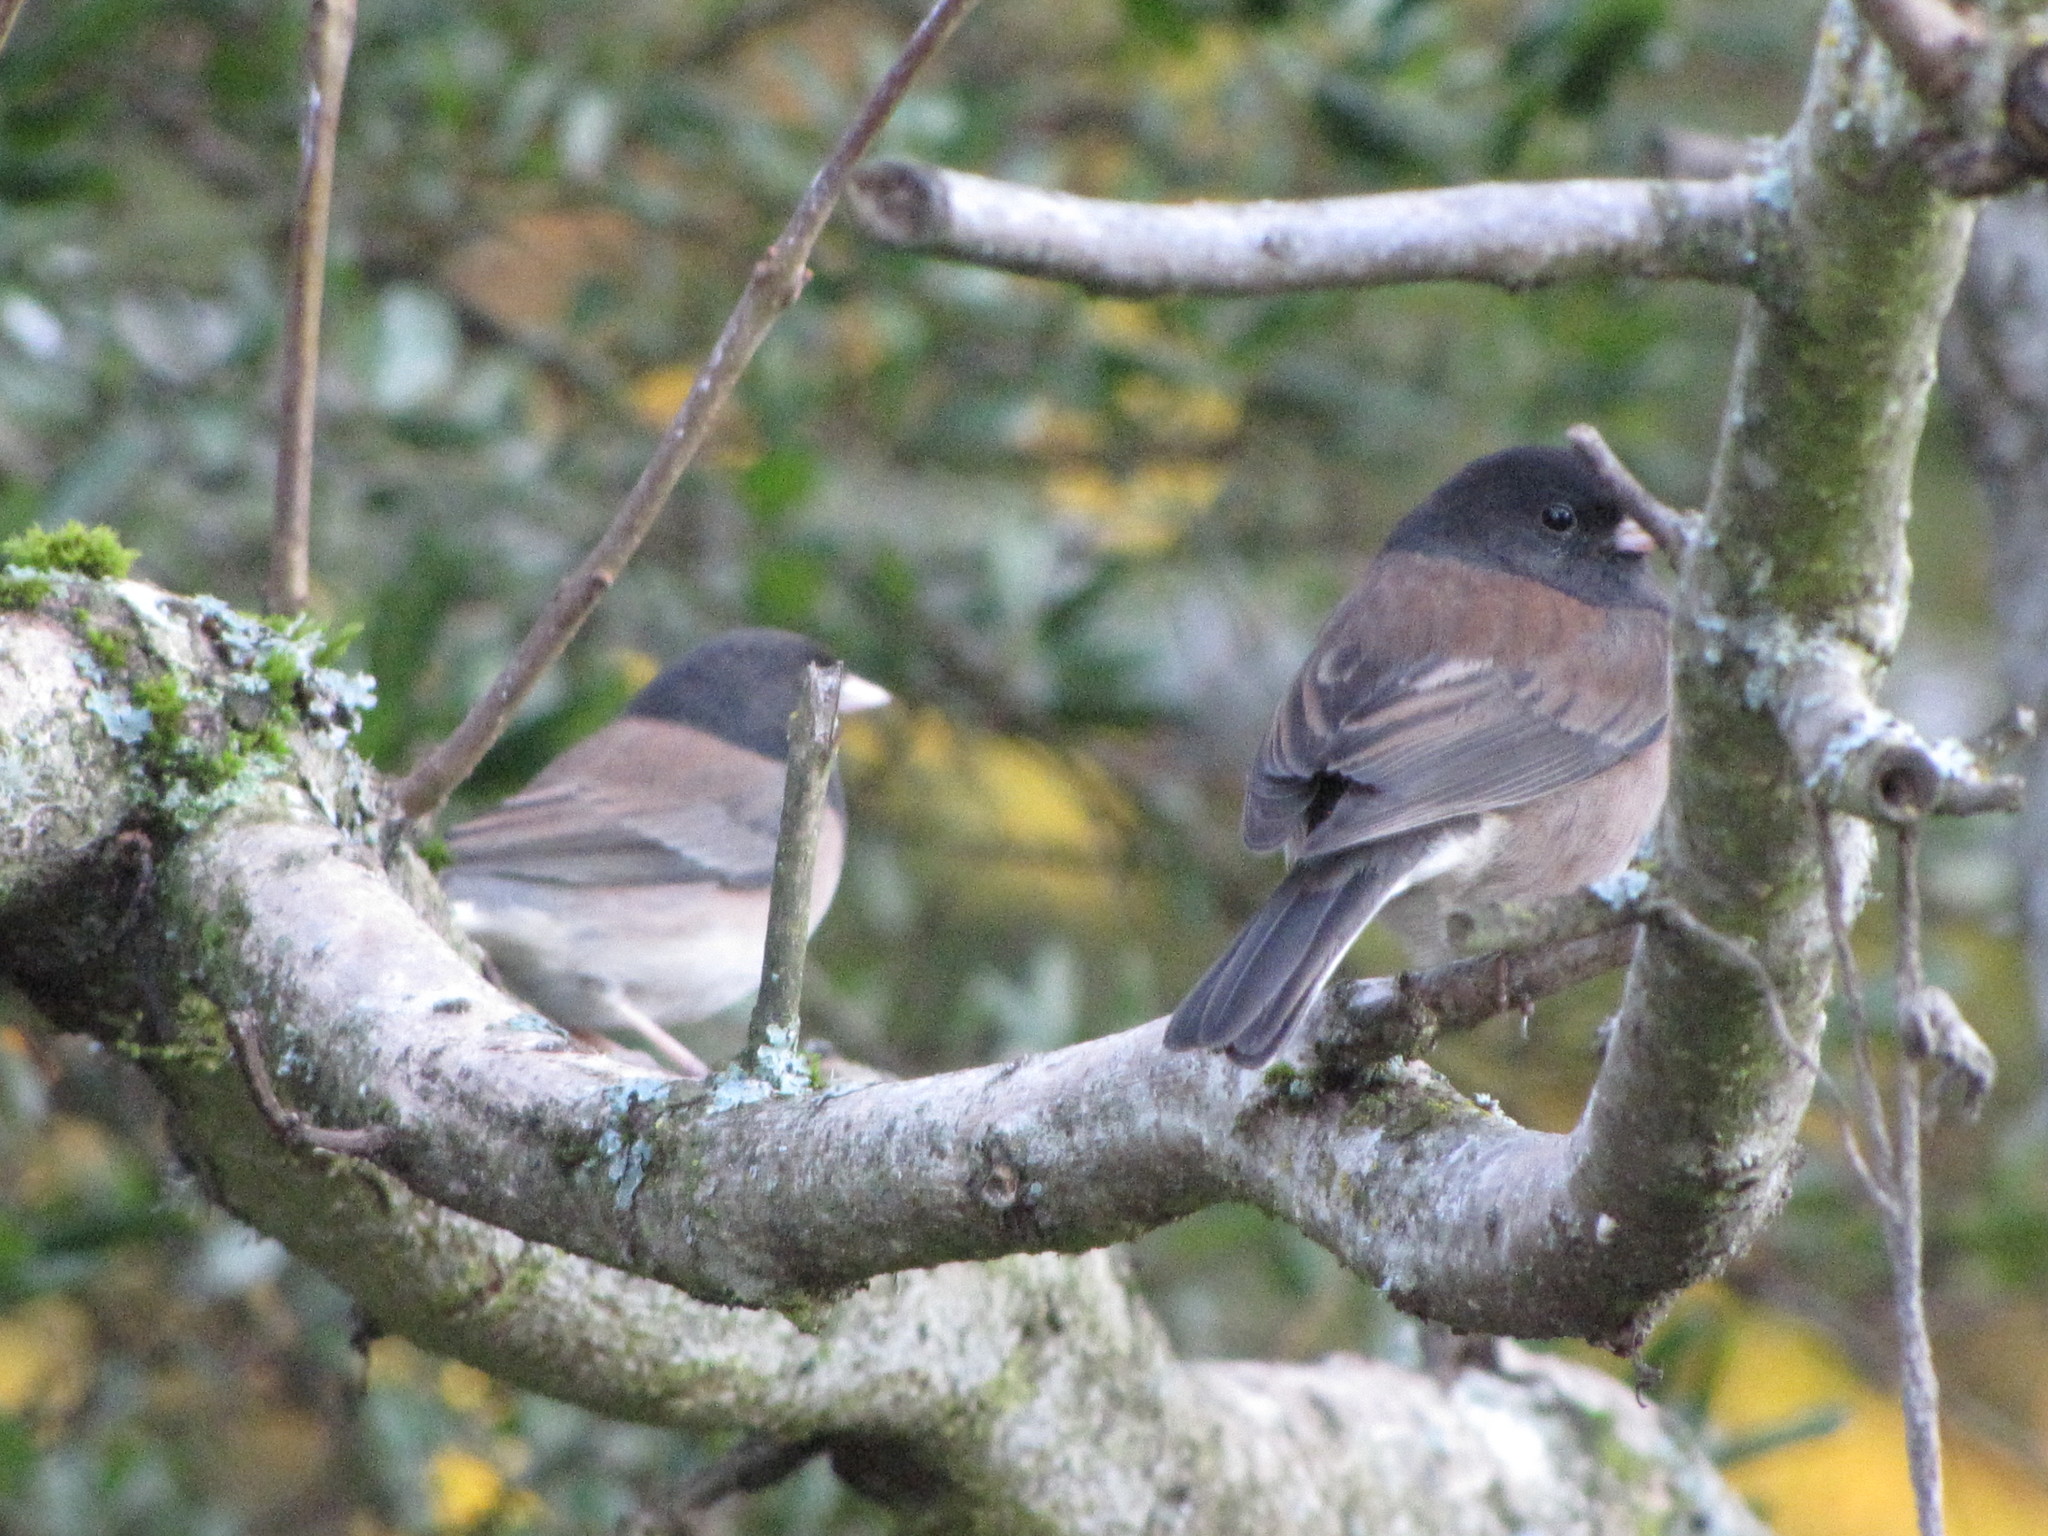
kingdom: Animalia
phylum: Chordata
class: Aves
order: Passeriformes
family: Passerellidae
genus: Junco
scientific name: Junco hyemalis
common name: Dark-eyed junco
